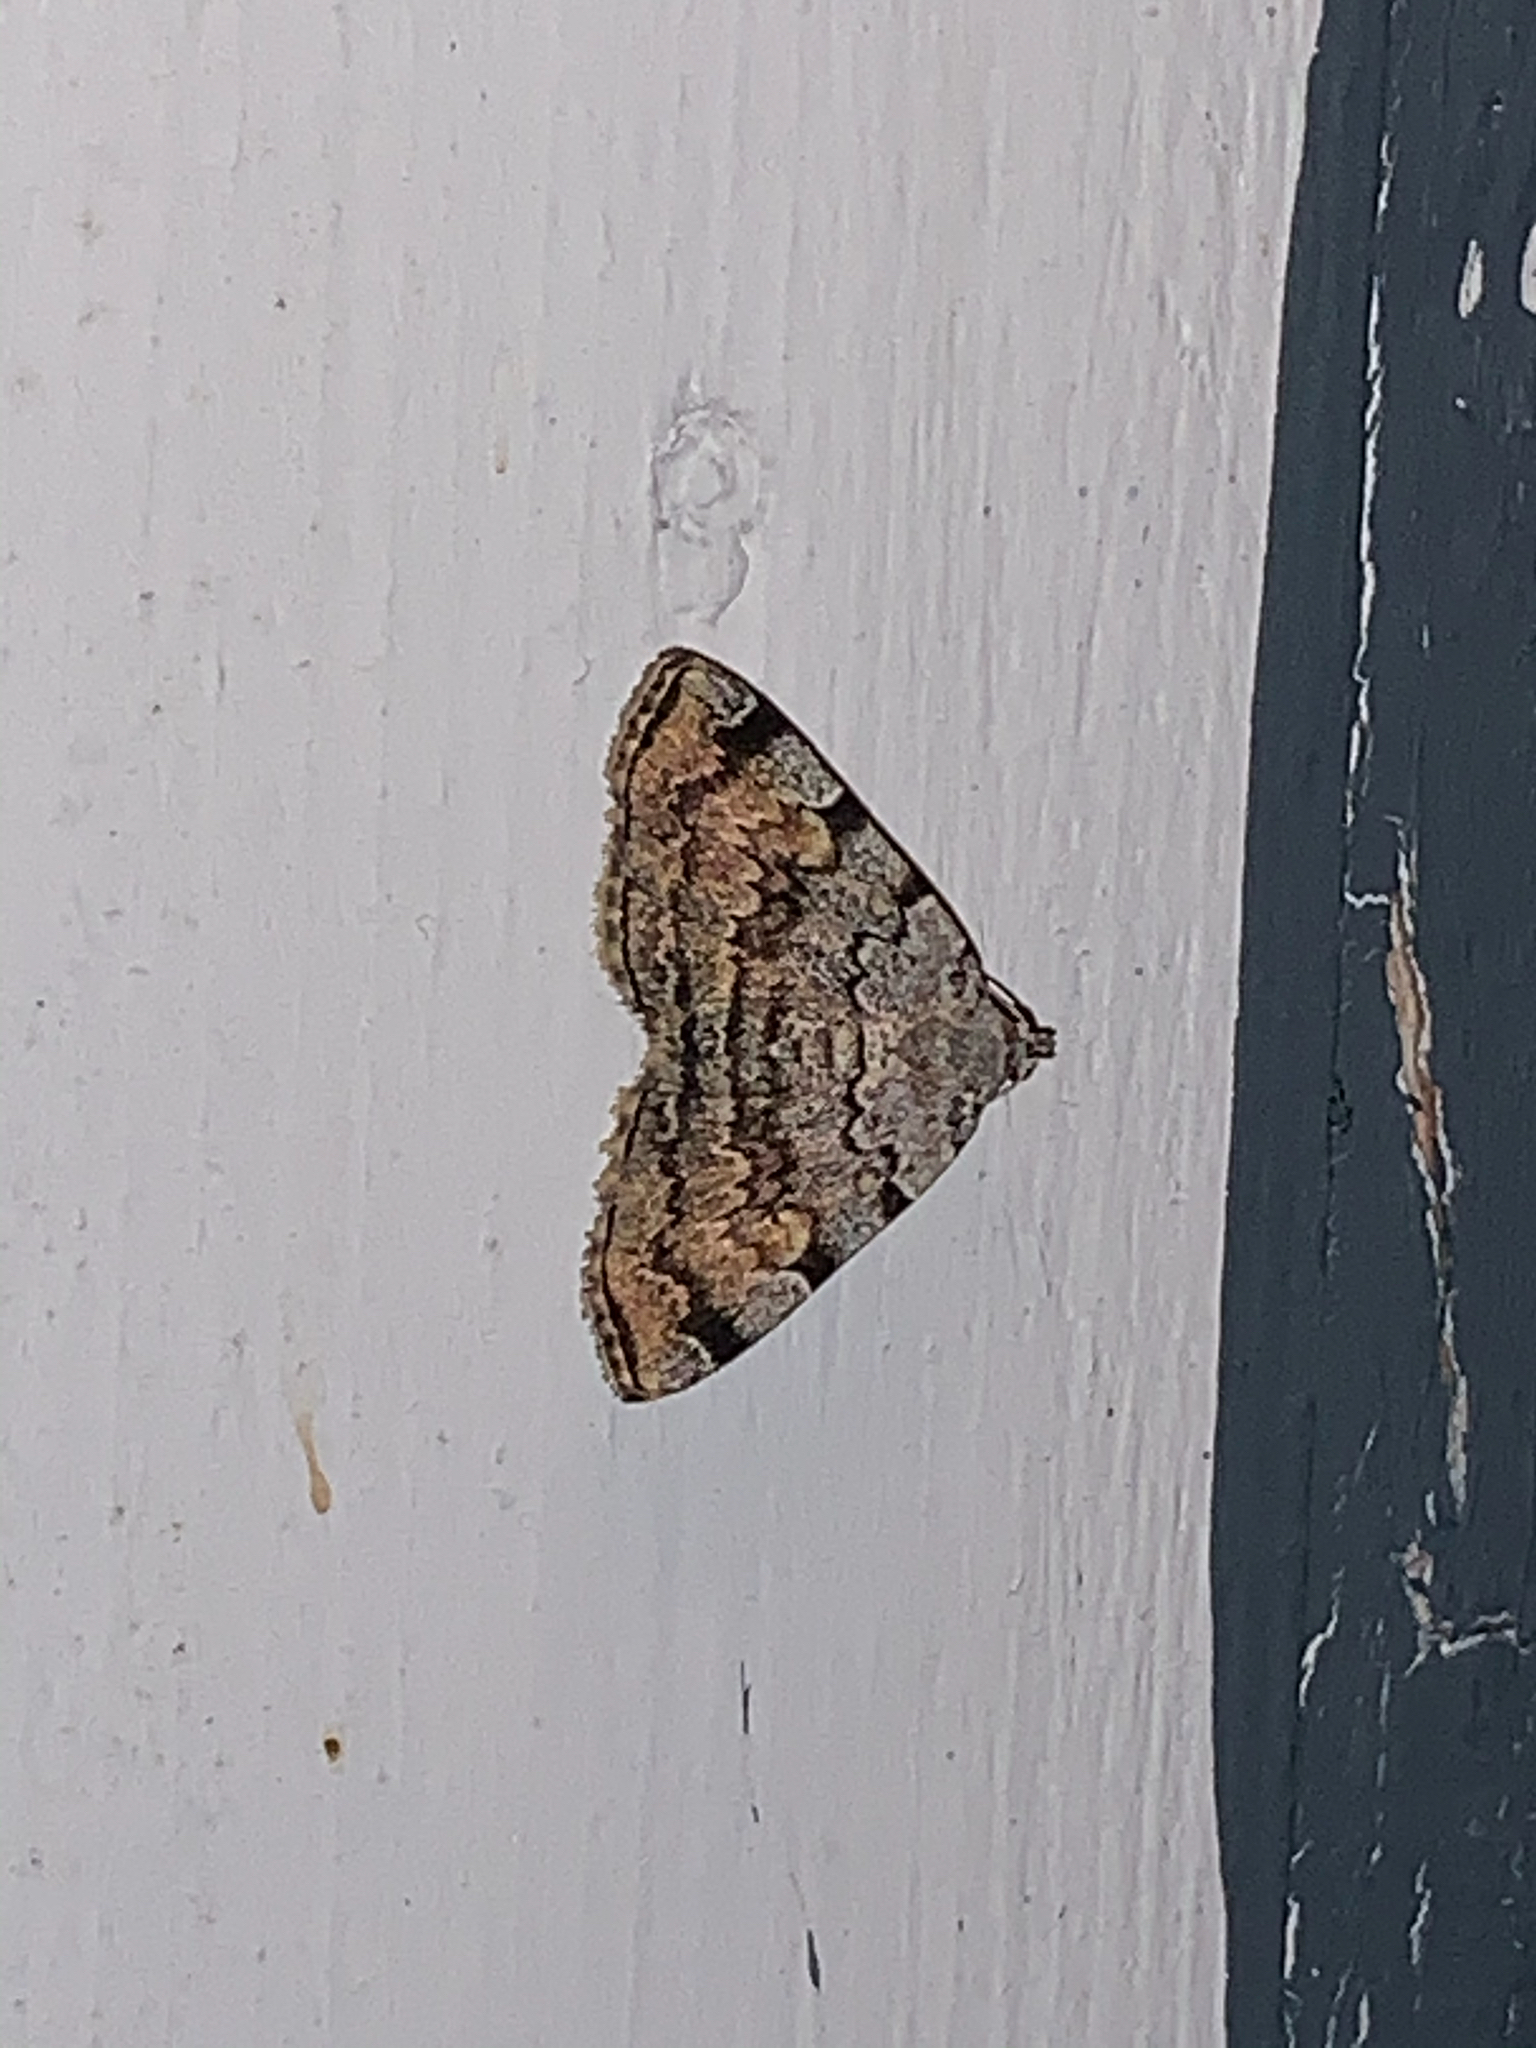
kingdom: Animalia
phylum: Arthropoda
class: Insecta
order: Lepidoptera
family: Erebidae
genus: Idia
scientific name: Idia americalis
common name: American idia moth
